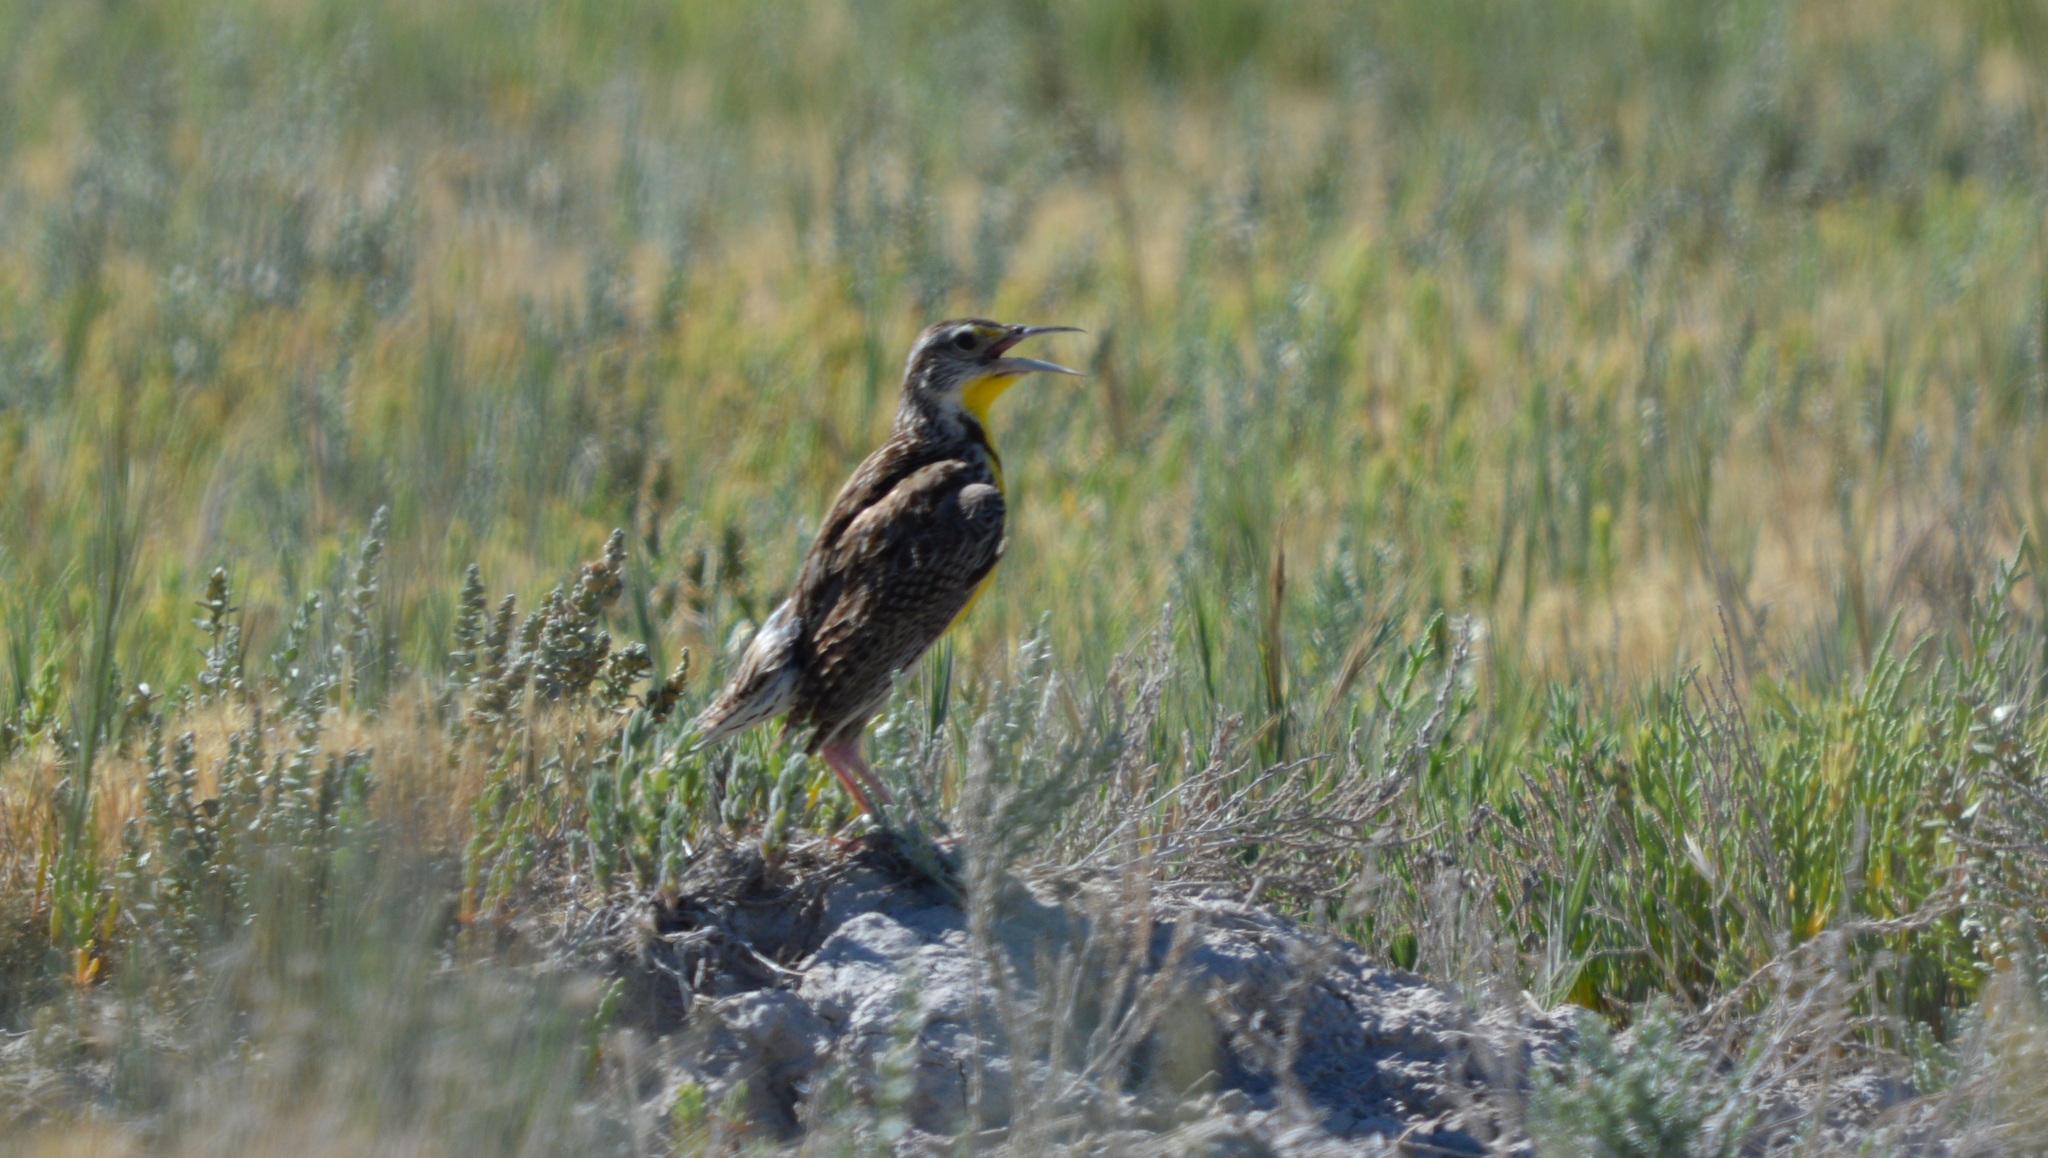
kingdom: Animalia
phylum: Chordata
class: Aves
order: Passeriformes
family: Icteridae
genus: Sturnella
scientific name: Sturnella neglecta
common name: Western meadowlark
